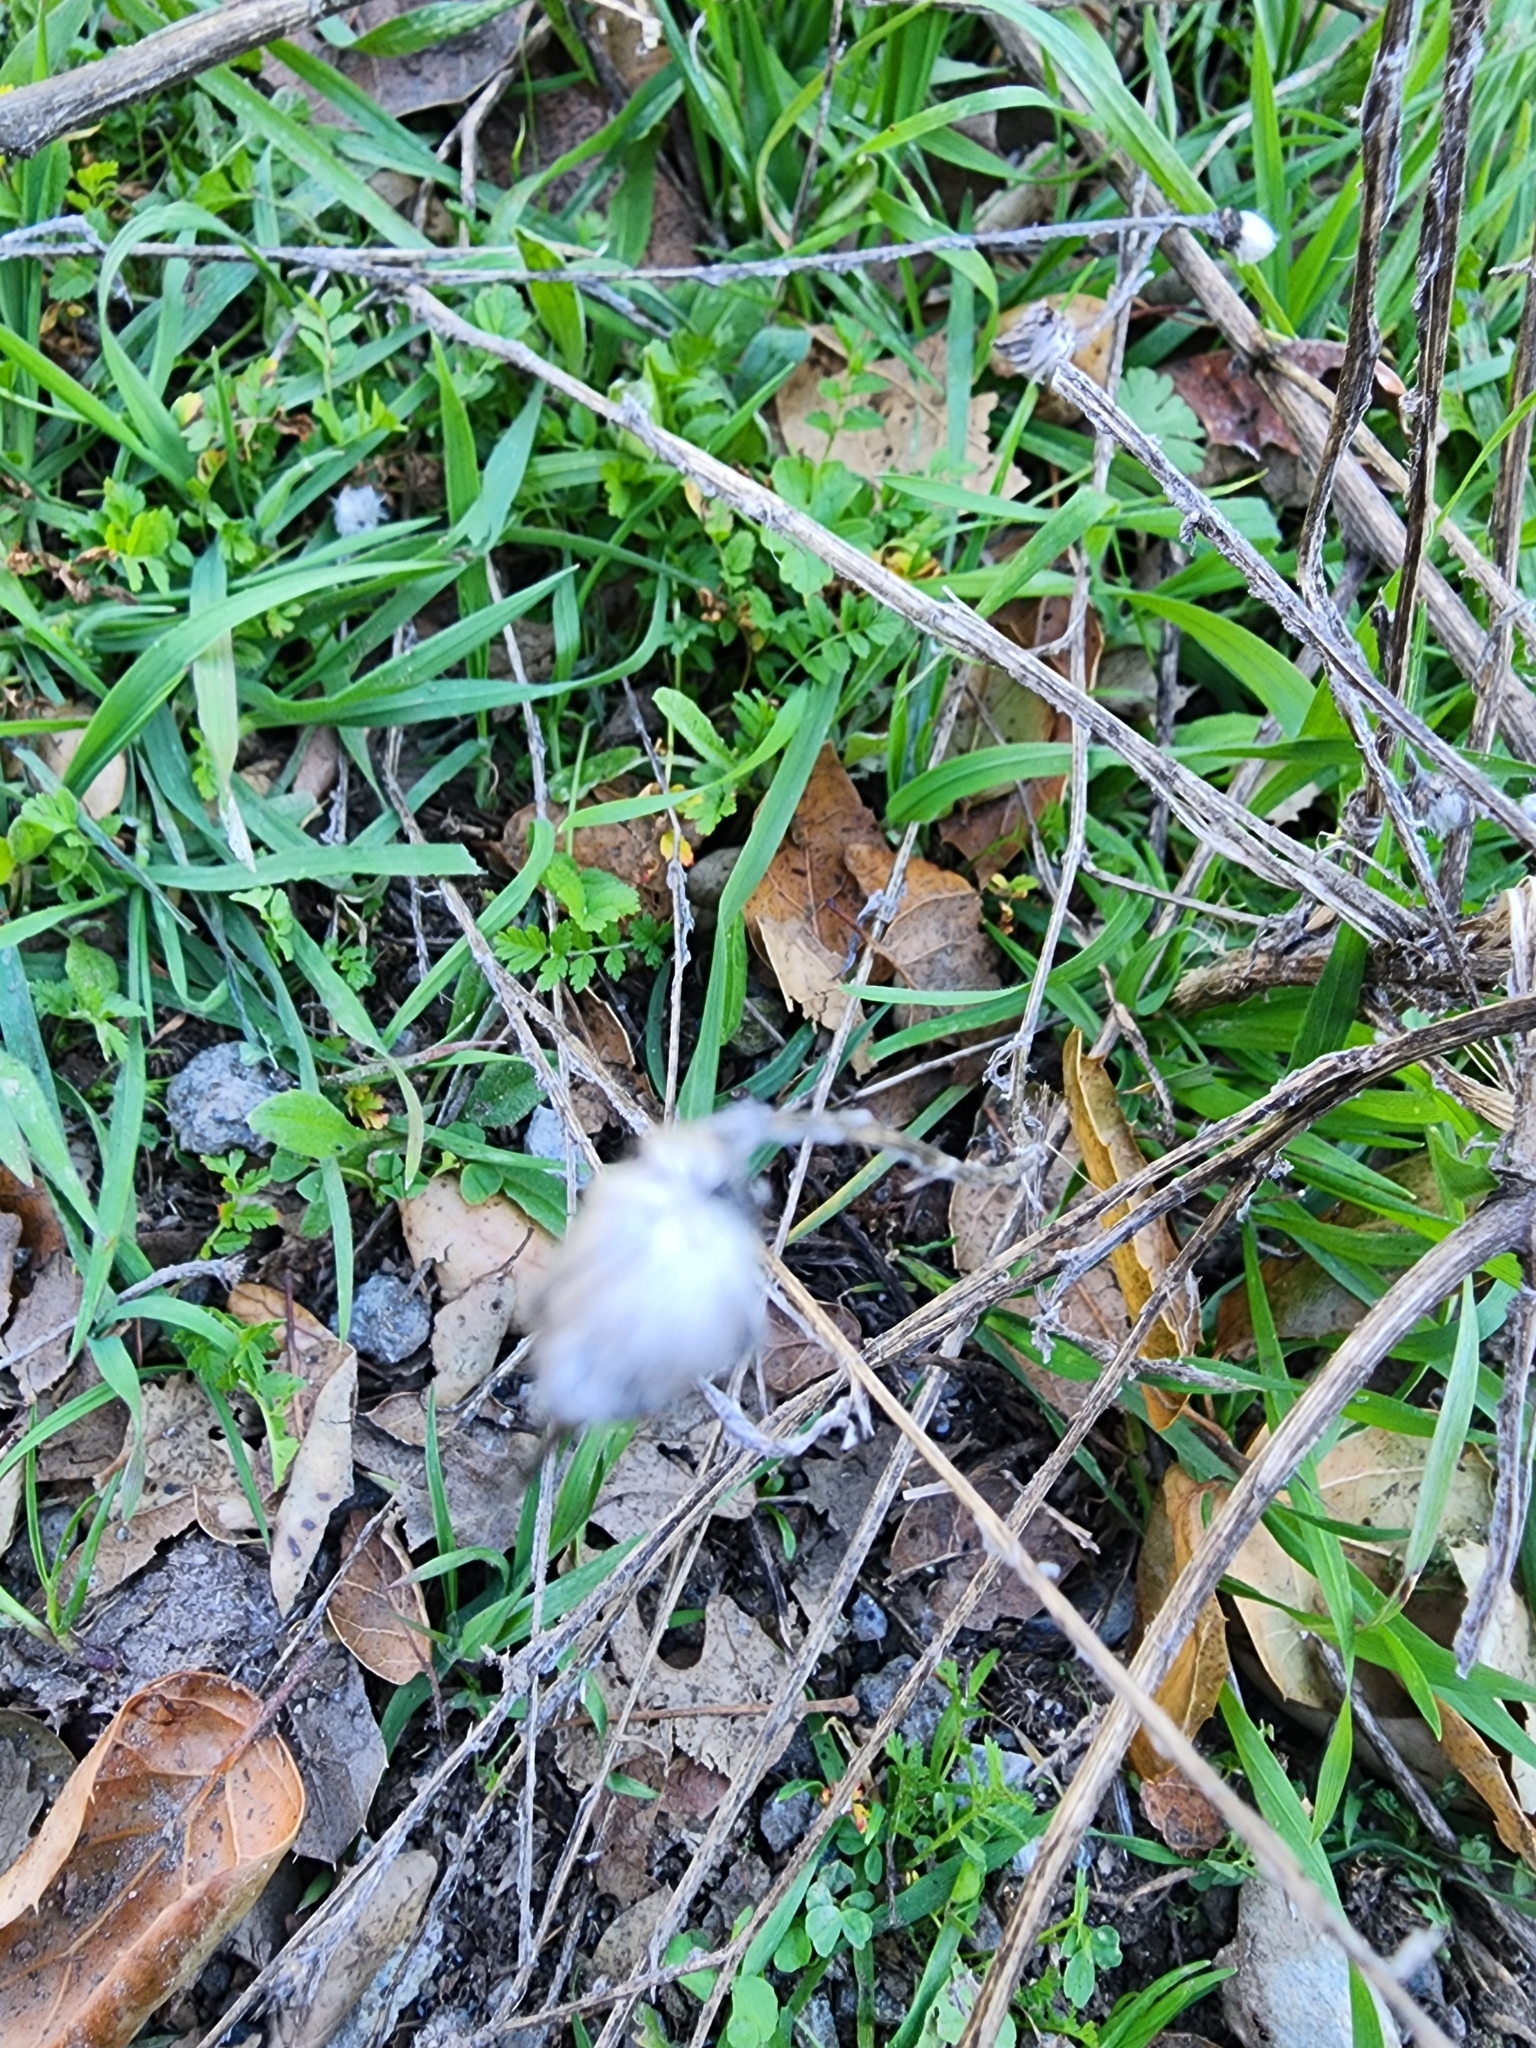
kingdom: Plantae
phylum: Tracheophyta
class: Magnoliopsida
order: Asterales
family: Asteraceae
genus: Centaurea
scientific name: Centaurea solstitialis
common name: Yellow star-thistle
